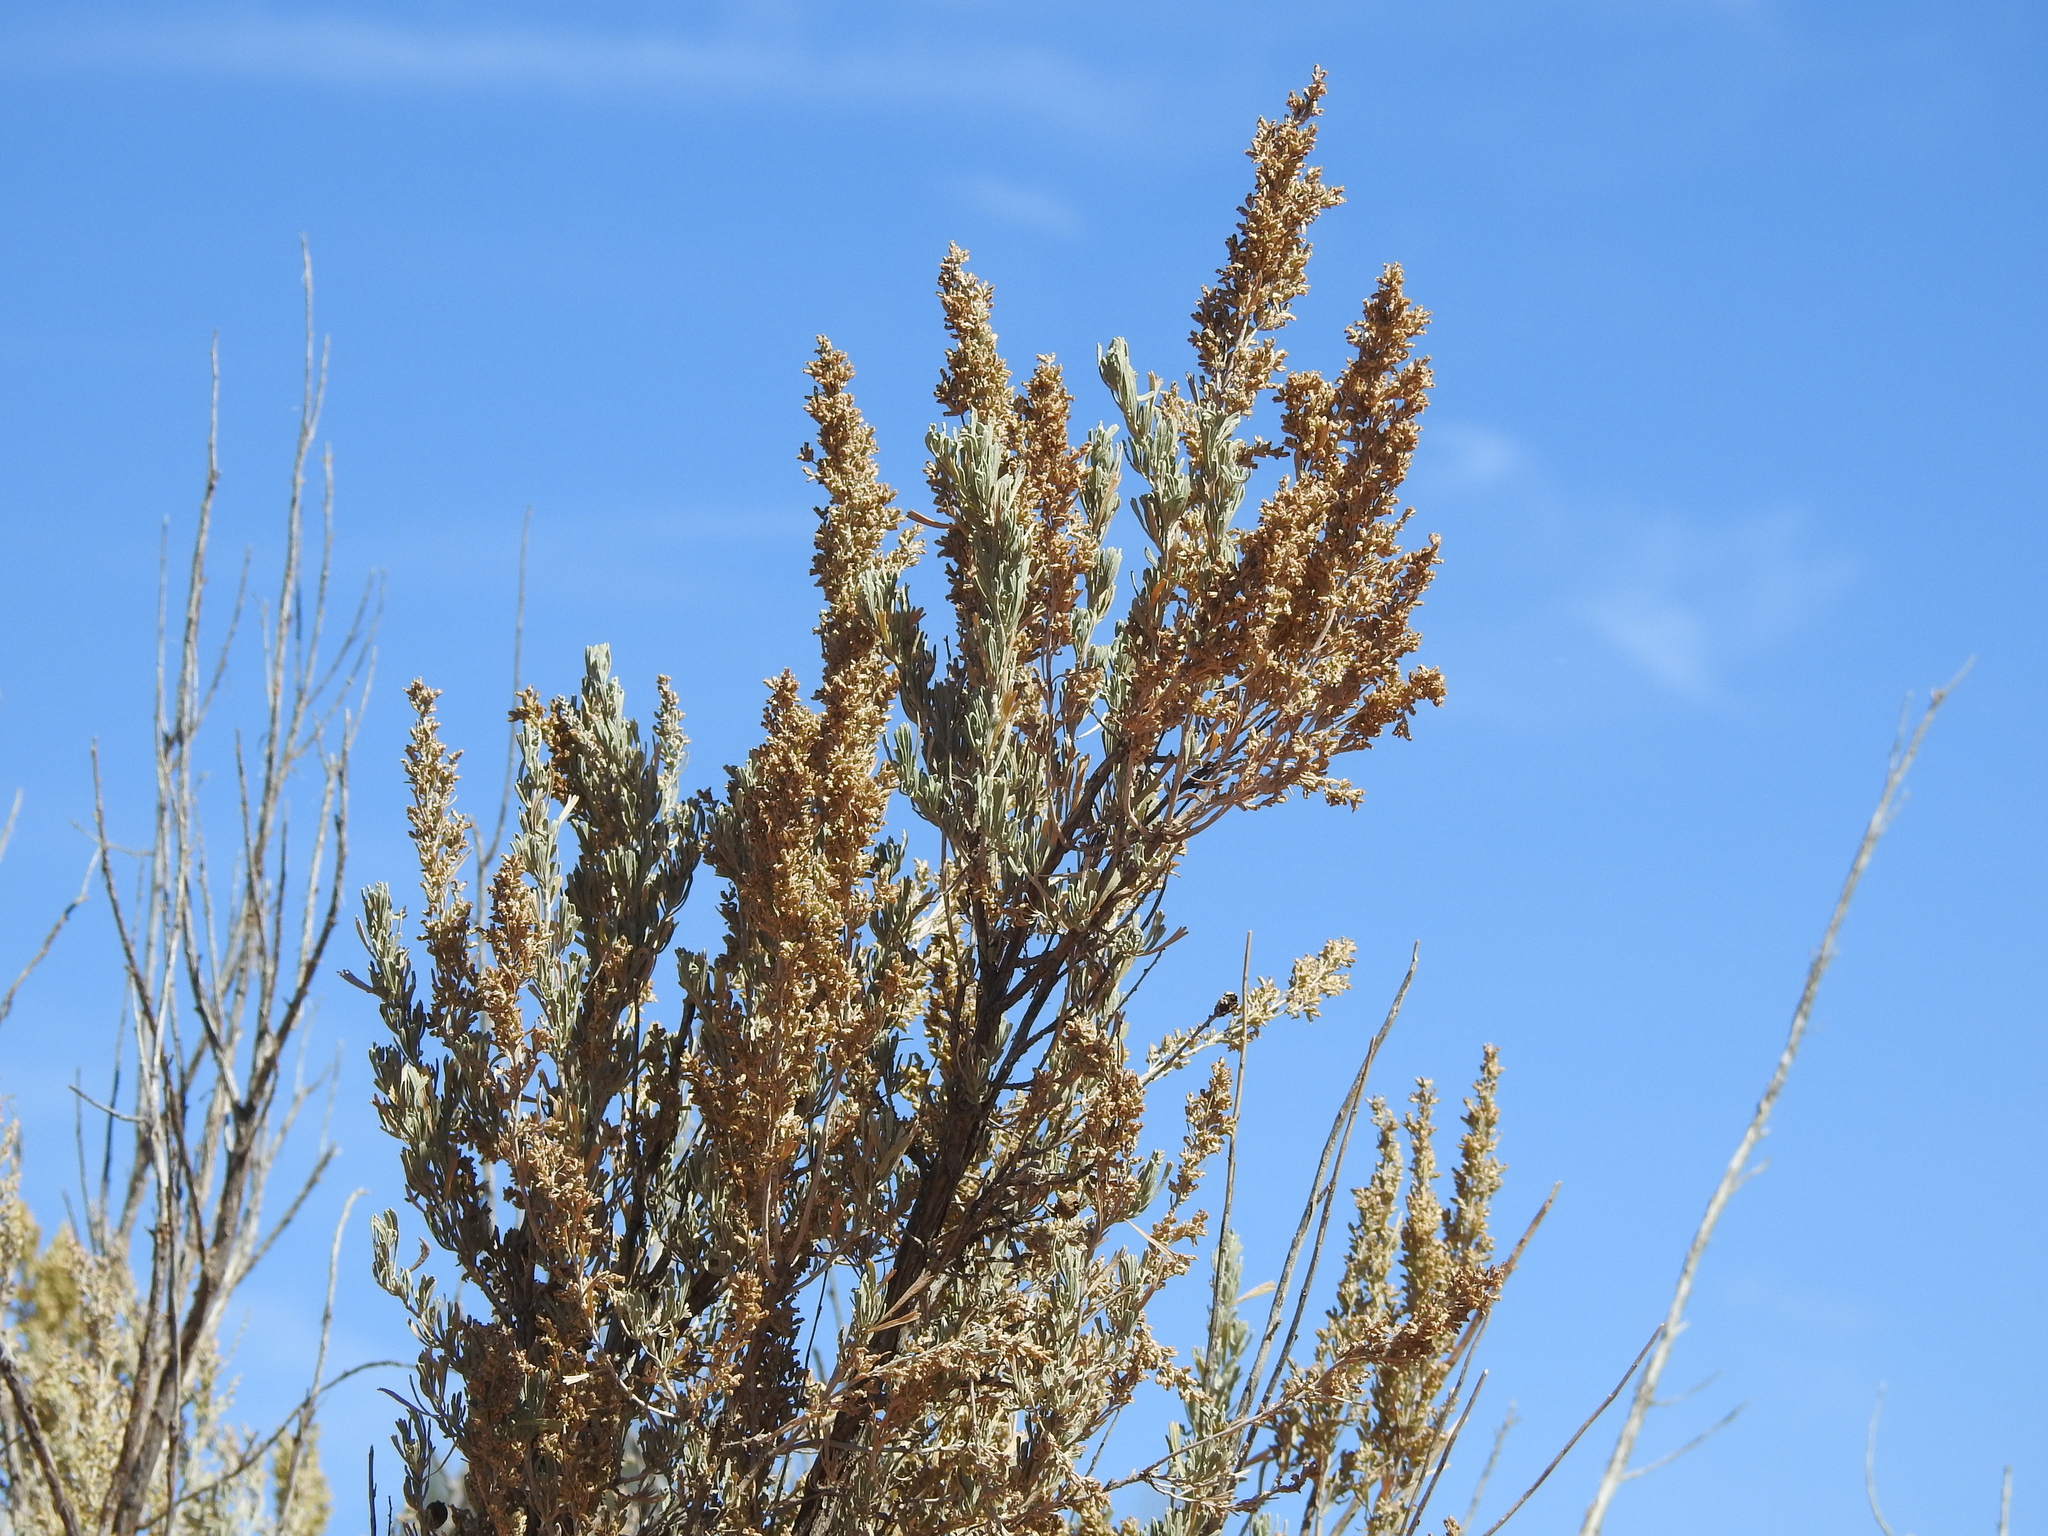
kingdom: Plantae
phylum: Tracheophyta
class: Magnoliopsida
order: Asterales
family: Asteraceae
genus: Artemisia
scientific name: Artemisia tridentata
